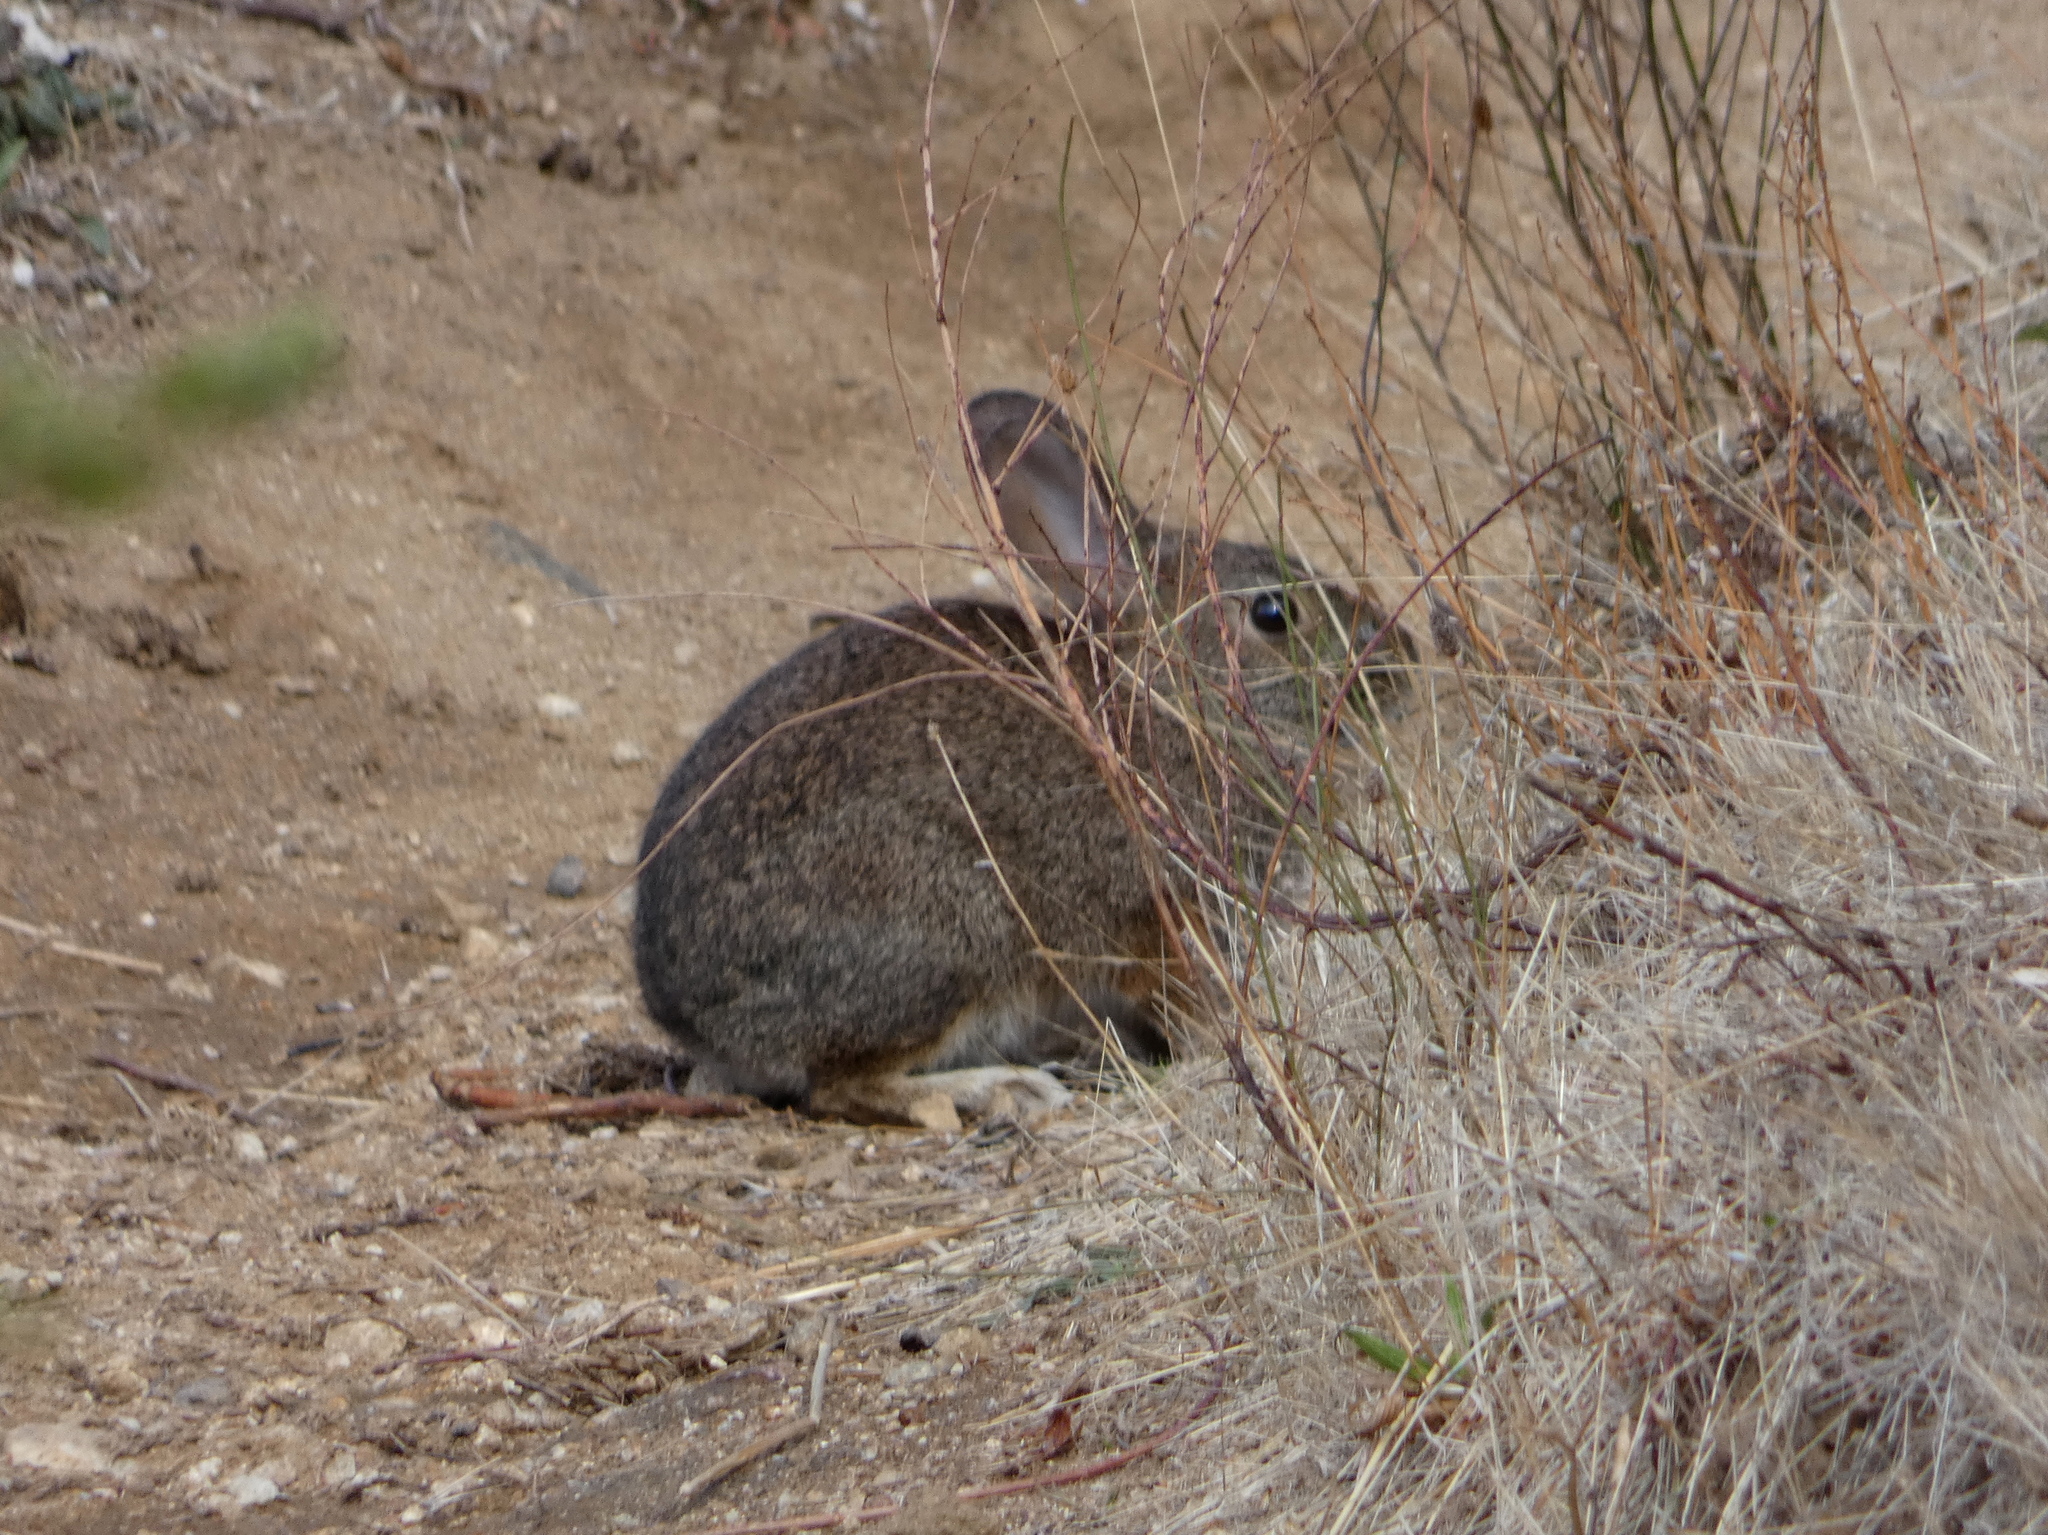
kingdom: Animalia
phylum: Chordata
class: Mammalia
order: Lagomorpha
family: Leporidae
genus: Sylvilagus
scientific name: Sylvilagus bachmani
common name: Brush rabbit
